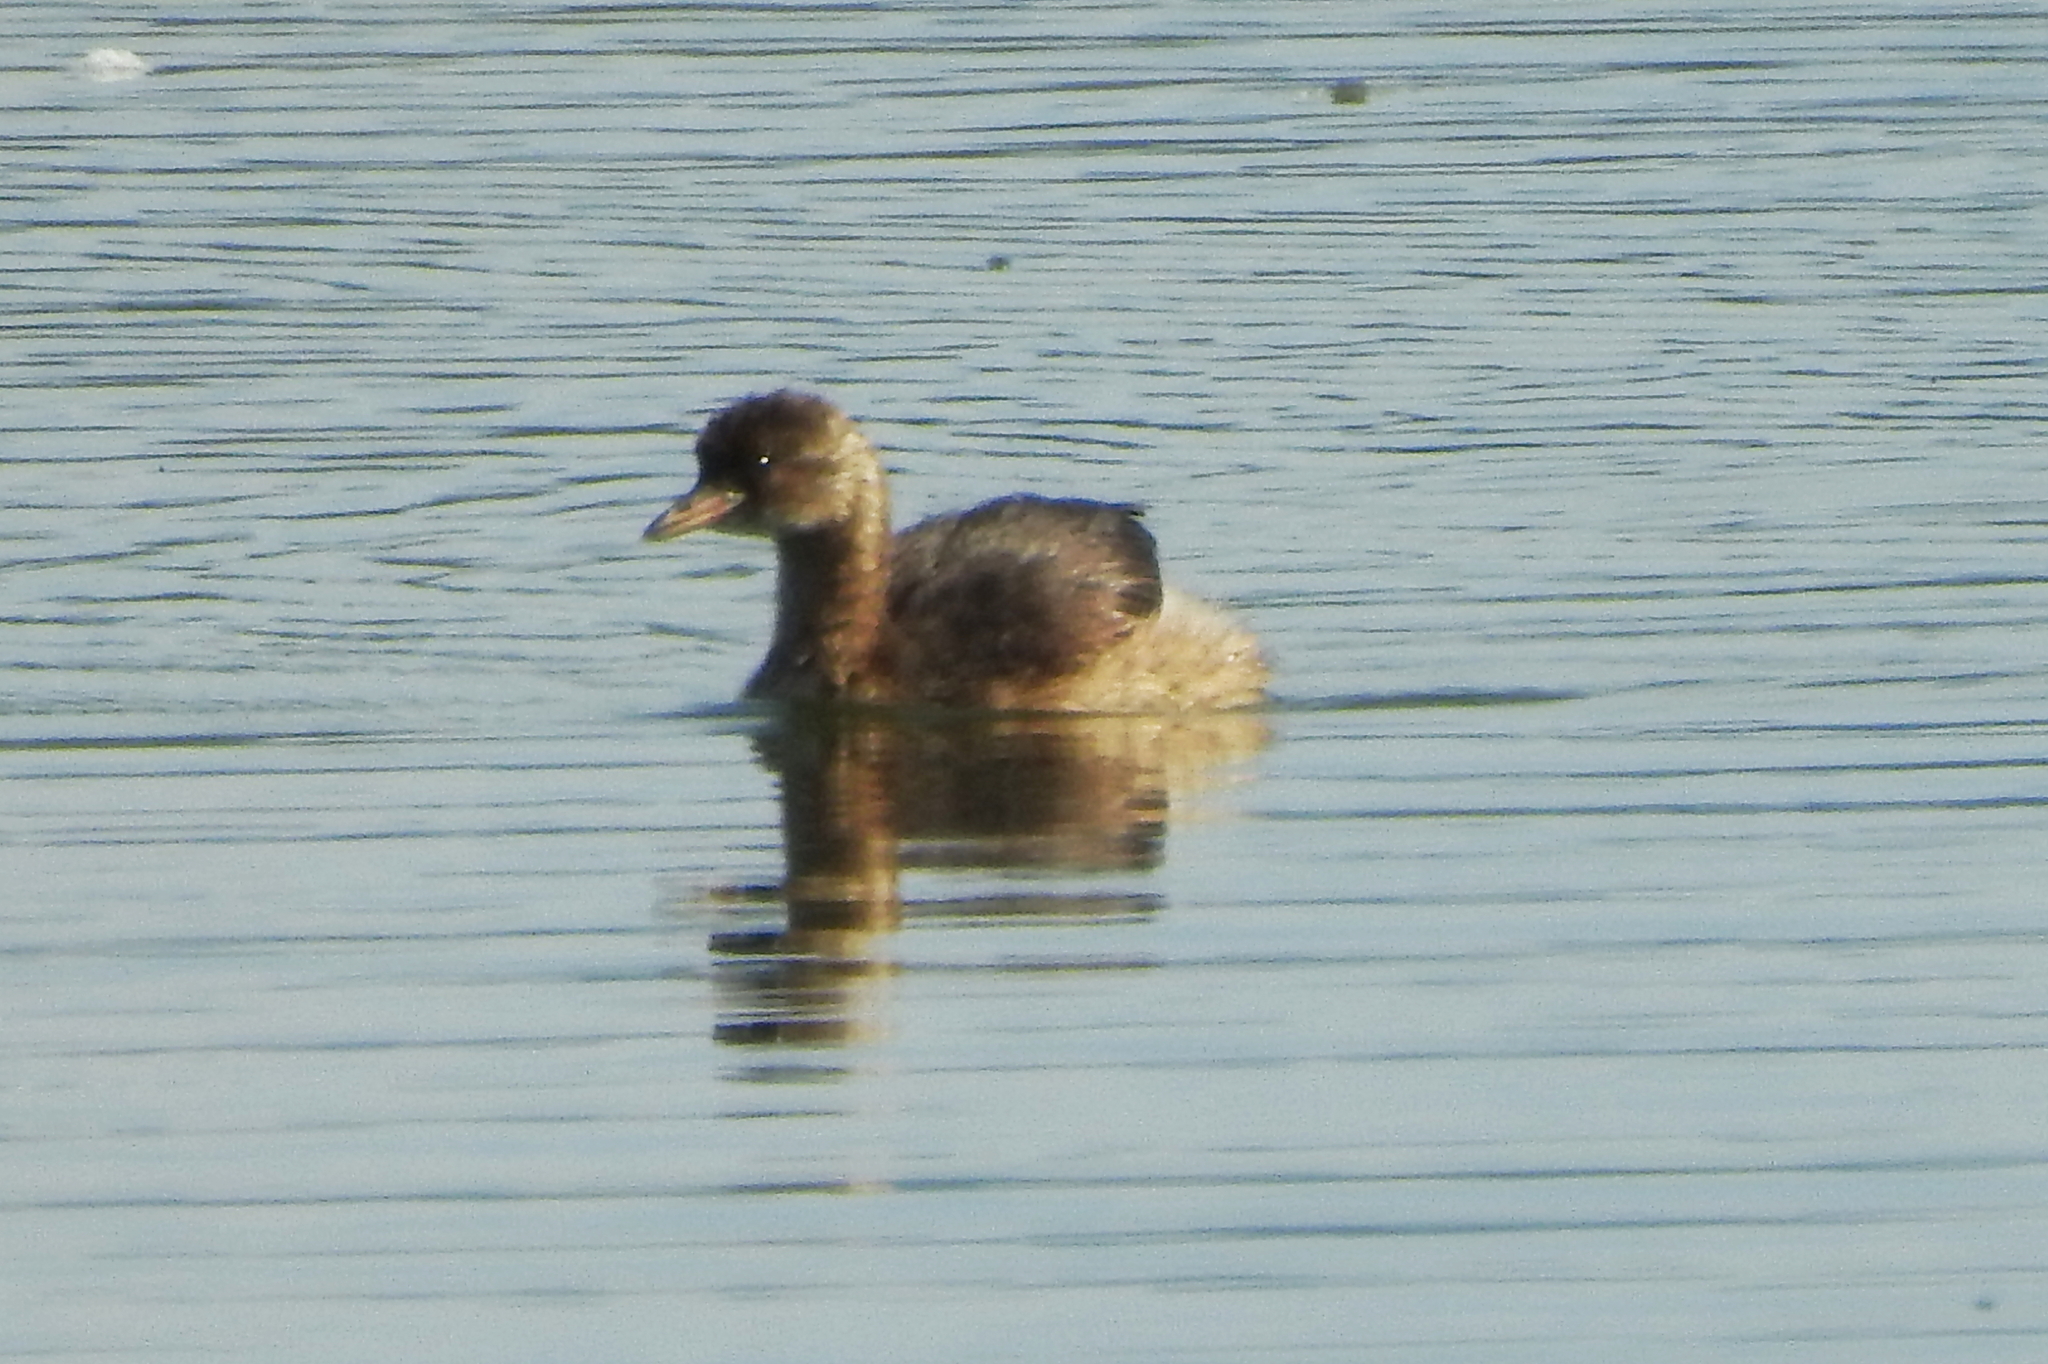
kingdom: Animalia
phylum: Chordata
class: Aves
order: Podicipediformes
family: Podicipedidae
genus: Tachybaptus
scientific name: Tachybaptus ruficollis
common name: Little grebe
